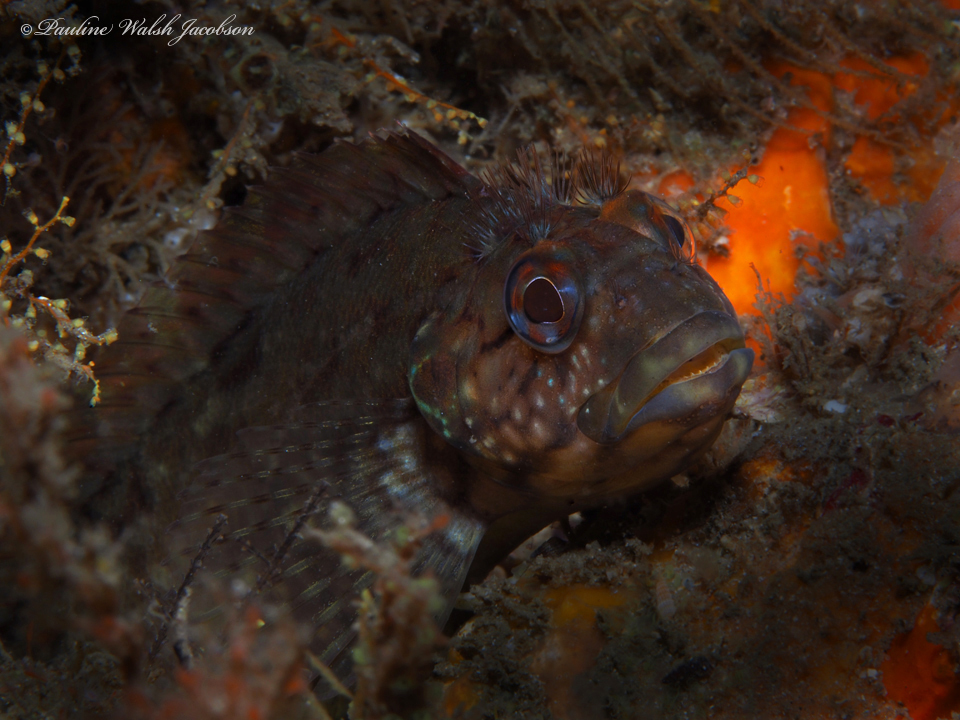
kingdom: Animalia
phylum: Chordata
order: Perciformes
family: Labrisomidae
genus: Labrisomus
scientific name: Labrisomus conditus
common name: Masquerader hairy blenny
